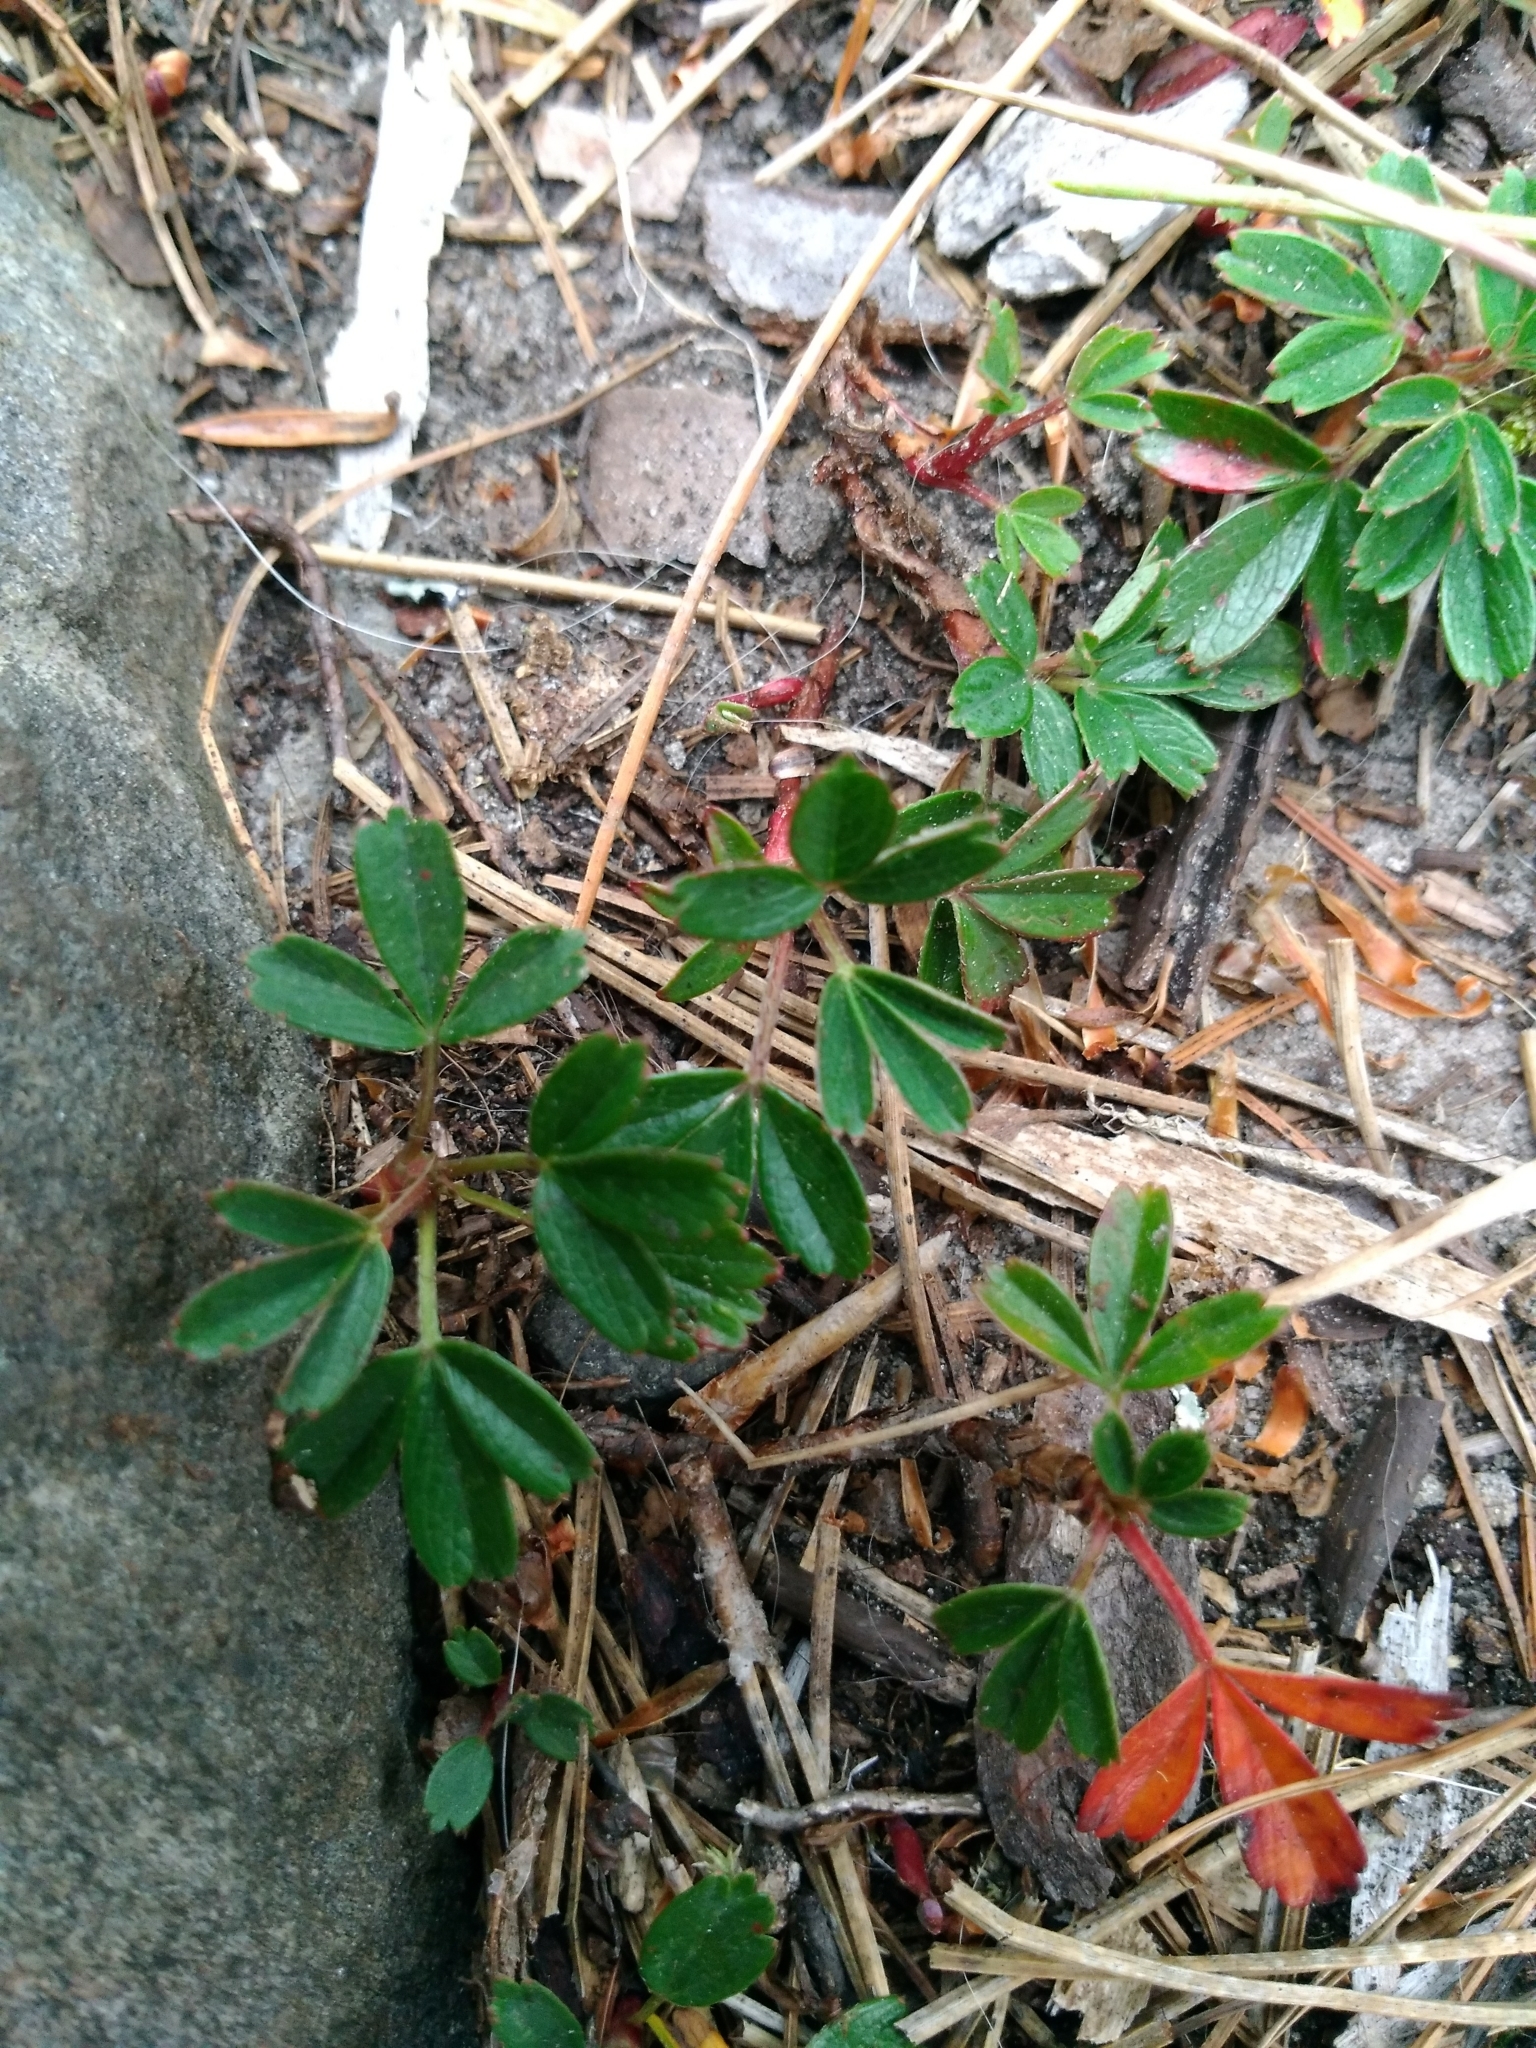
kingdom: Plantae
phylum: Tracheophyta
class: Magnoliopsida
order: Rosales
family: Rosaceae
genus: Sibbaldia
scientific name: Sibbaldia tridentata
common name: Three-toothed cinquefoil
